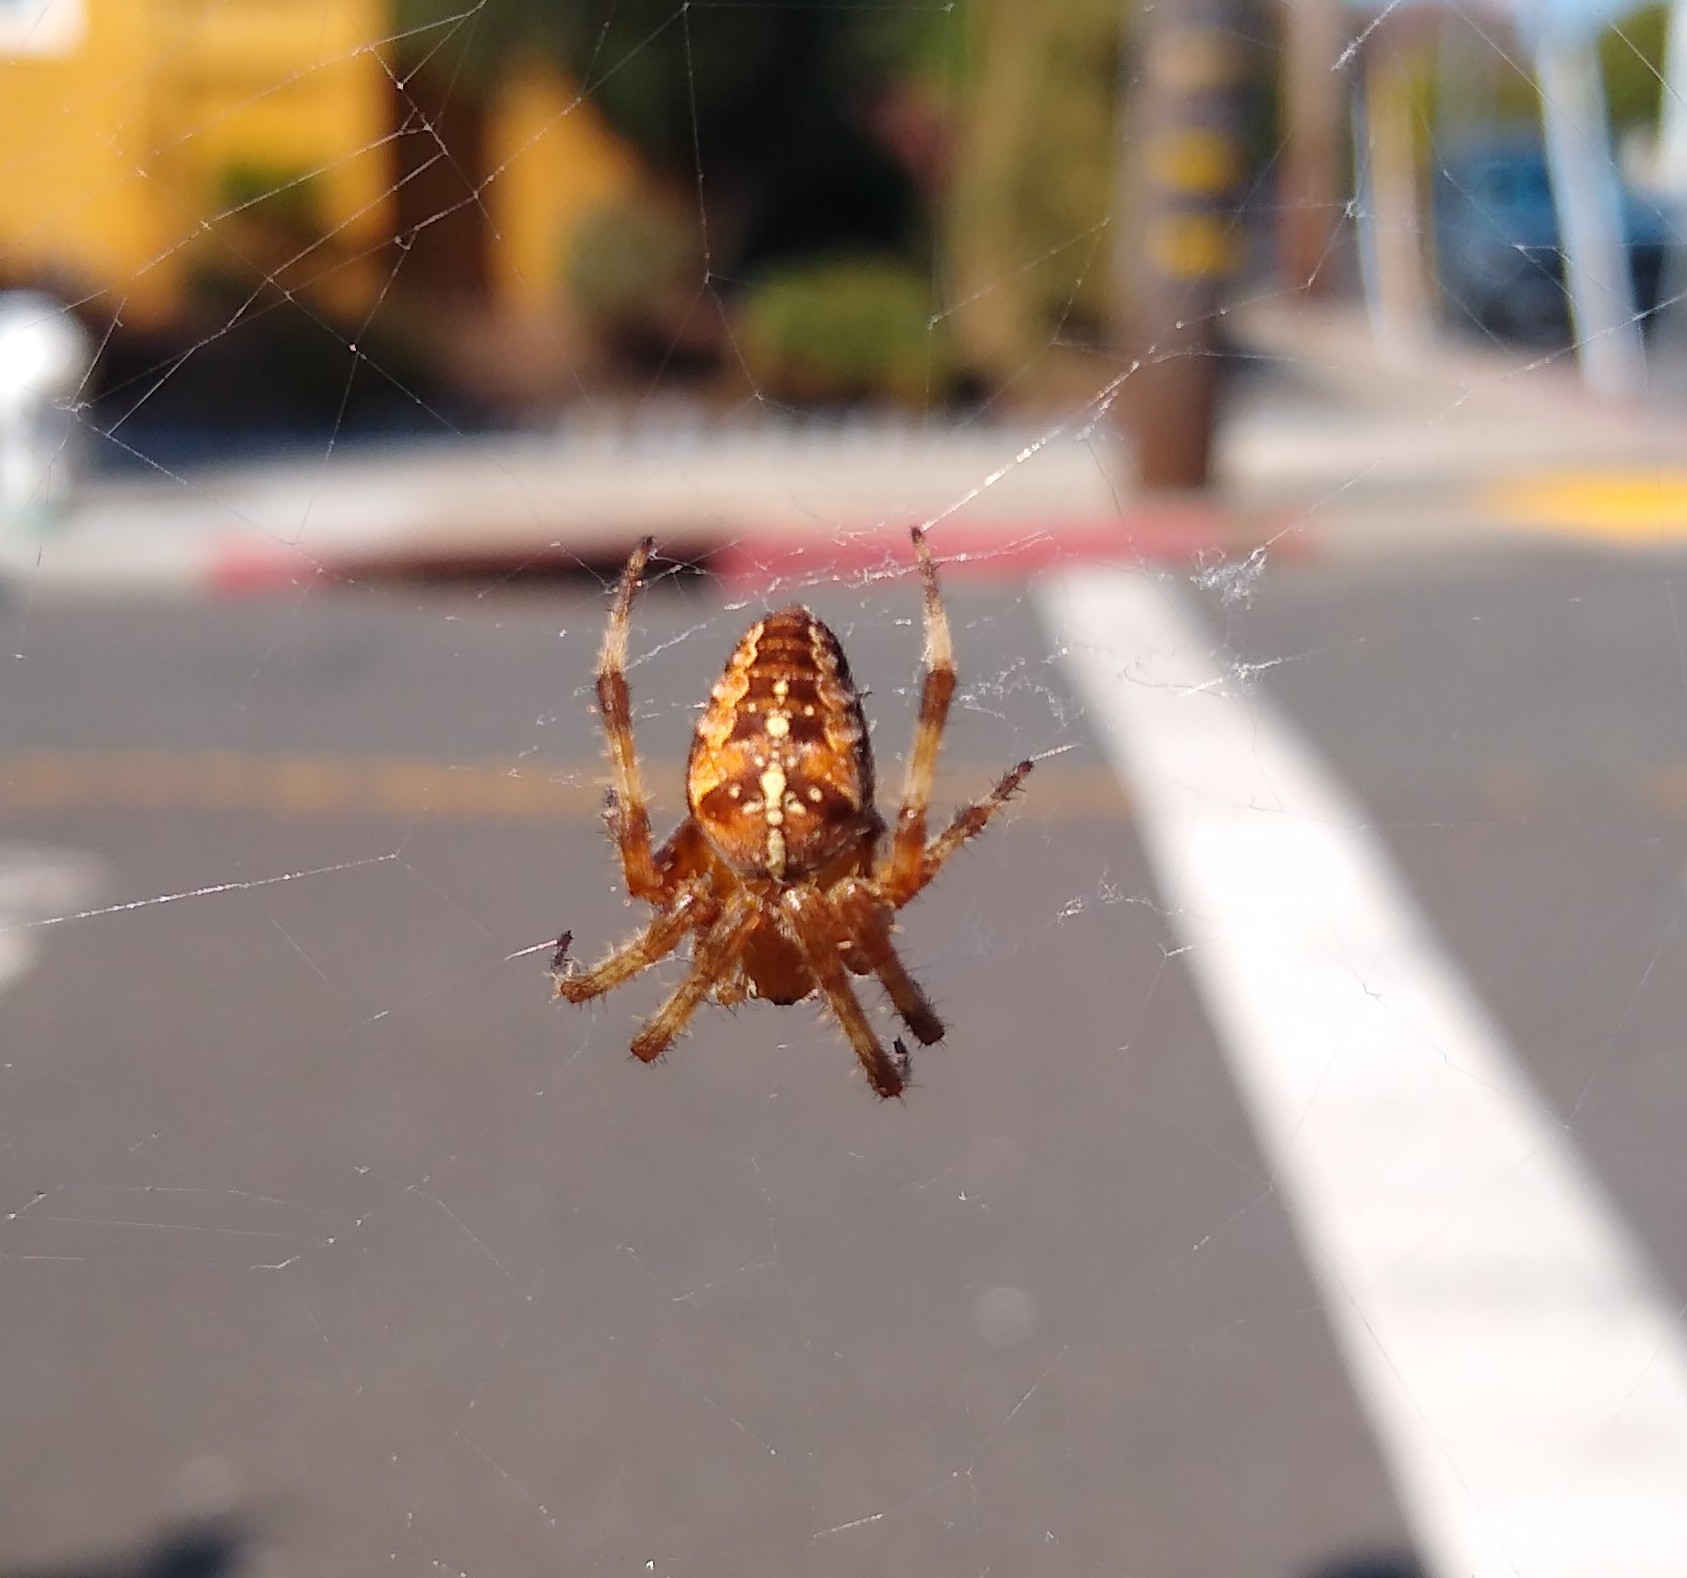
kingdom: Animalia
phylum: Arthropoda
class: Arachnida
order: Araneae
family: Araneidae
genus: Araneus
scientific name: Araneus diadematus
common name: Cross orbweaver
